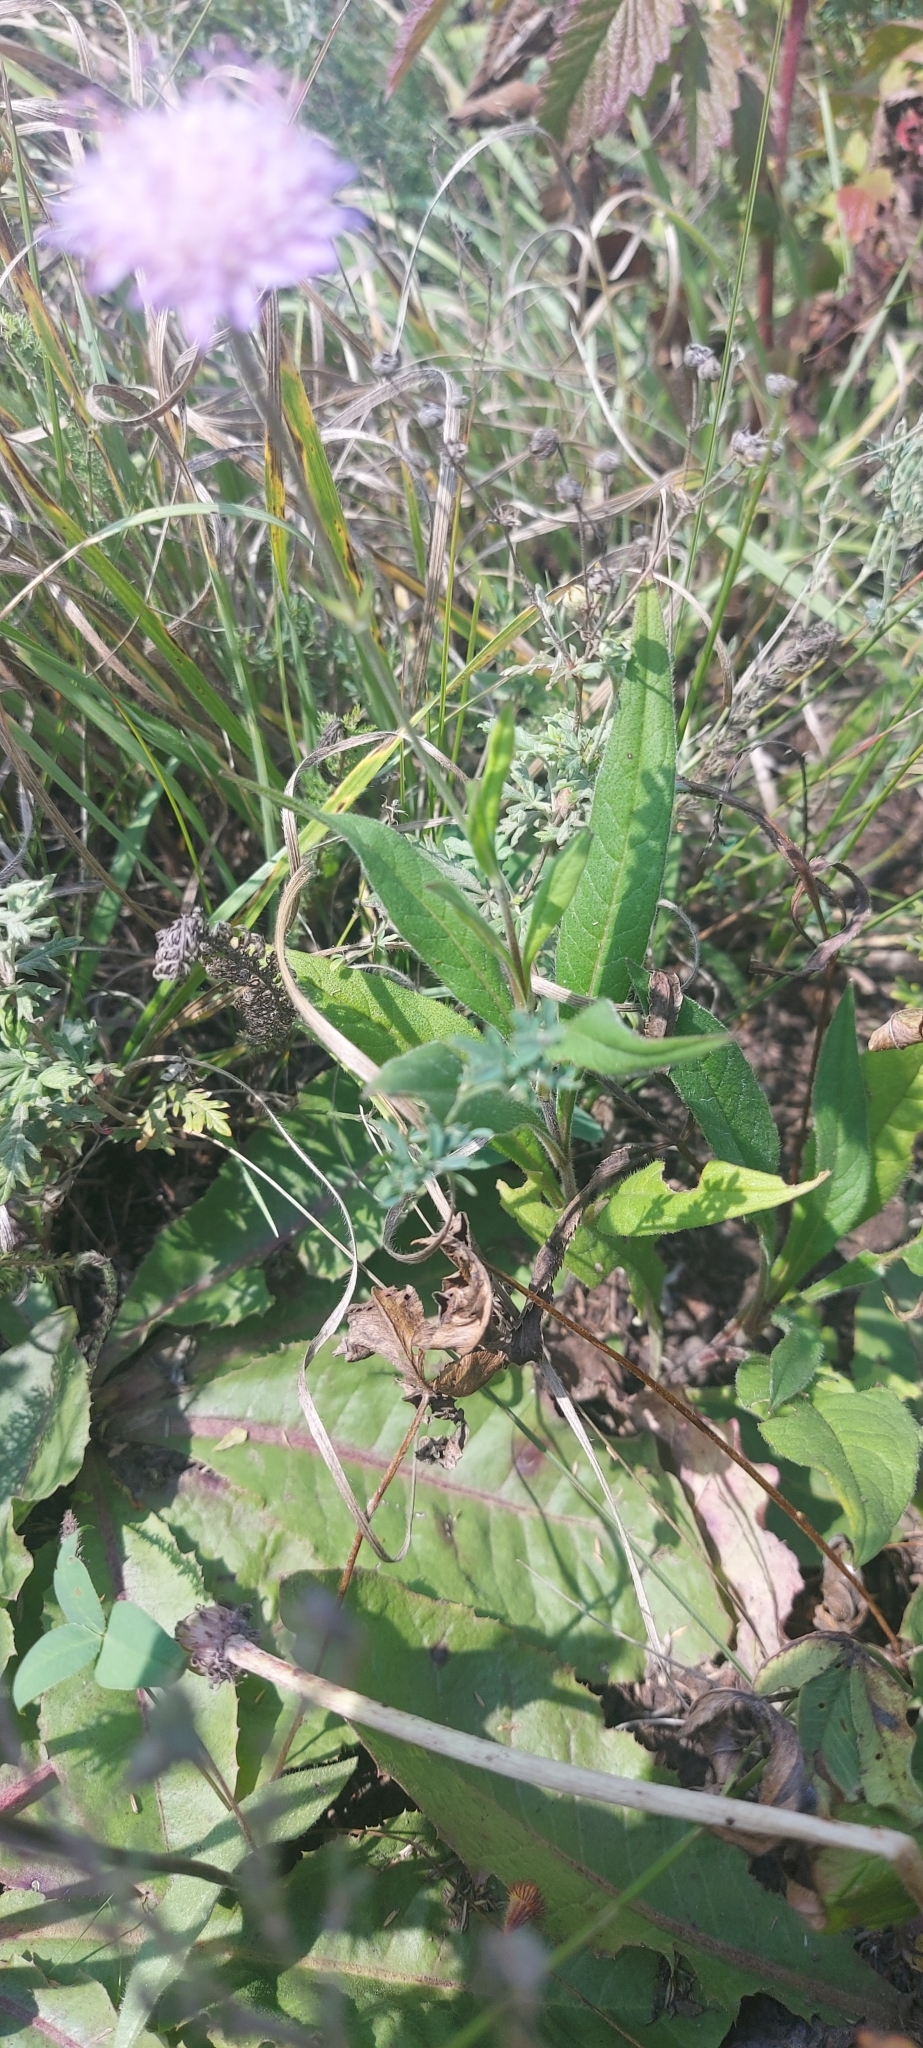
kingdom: Plantae
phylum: Tracheophyta
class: Magnoliopsida
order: Dipsacales
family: Caprifoliaceae
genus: Knautia
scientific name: Knautia arvensis
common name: Field scabiosa
